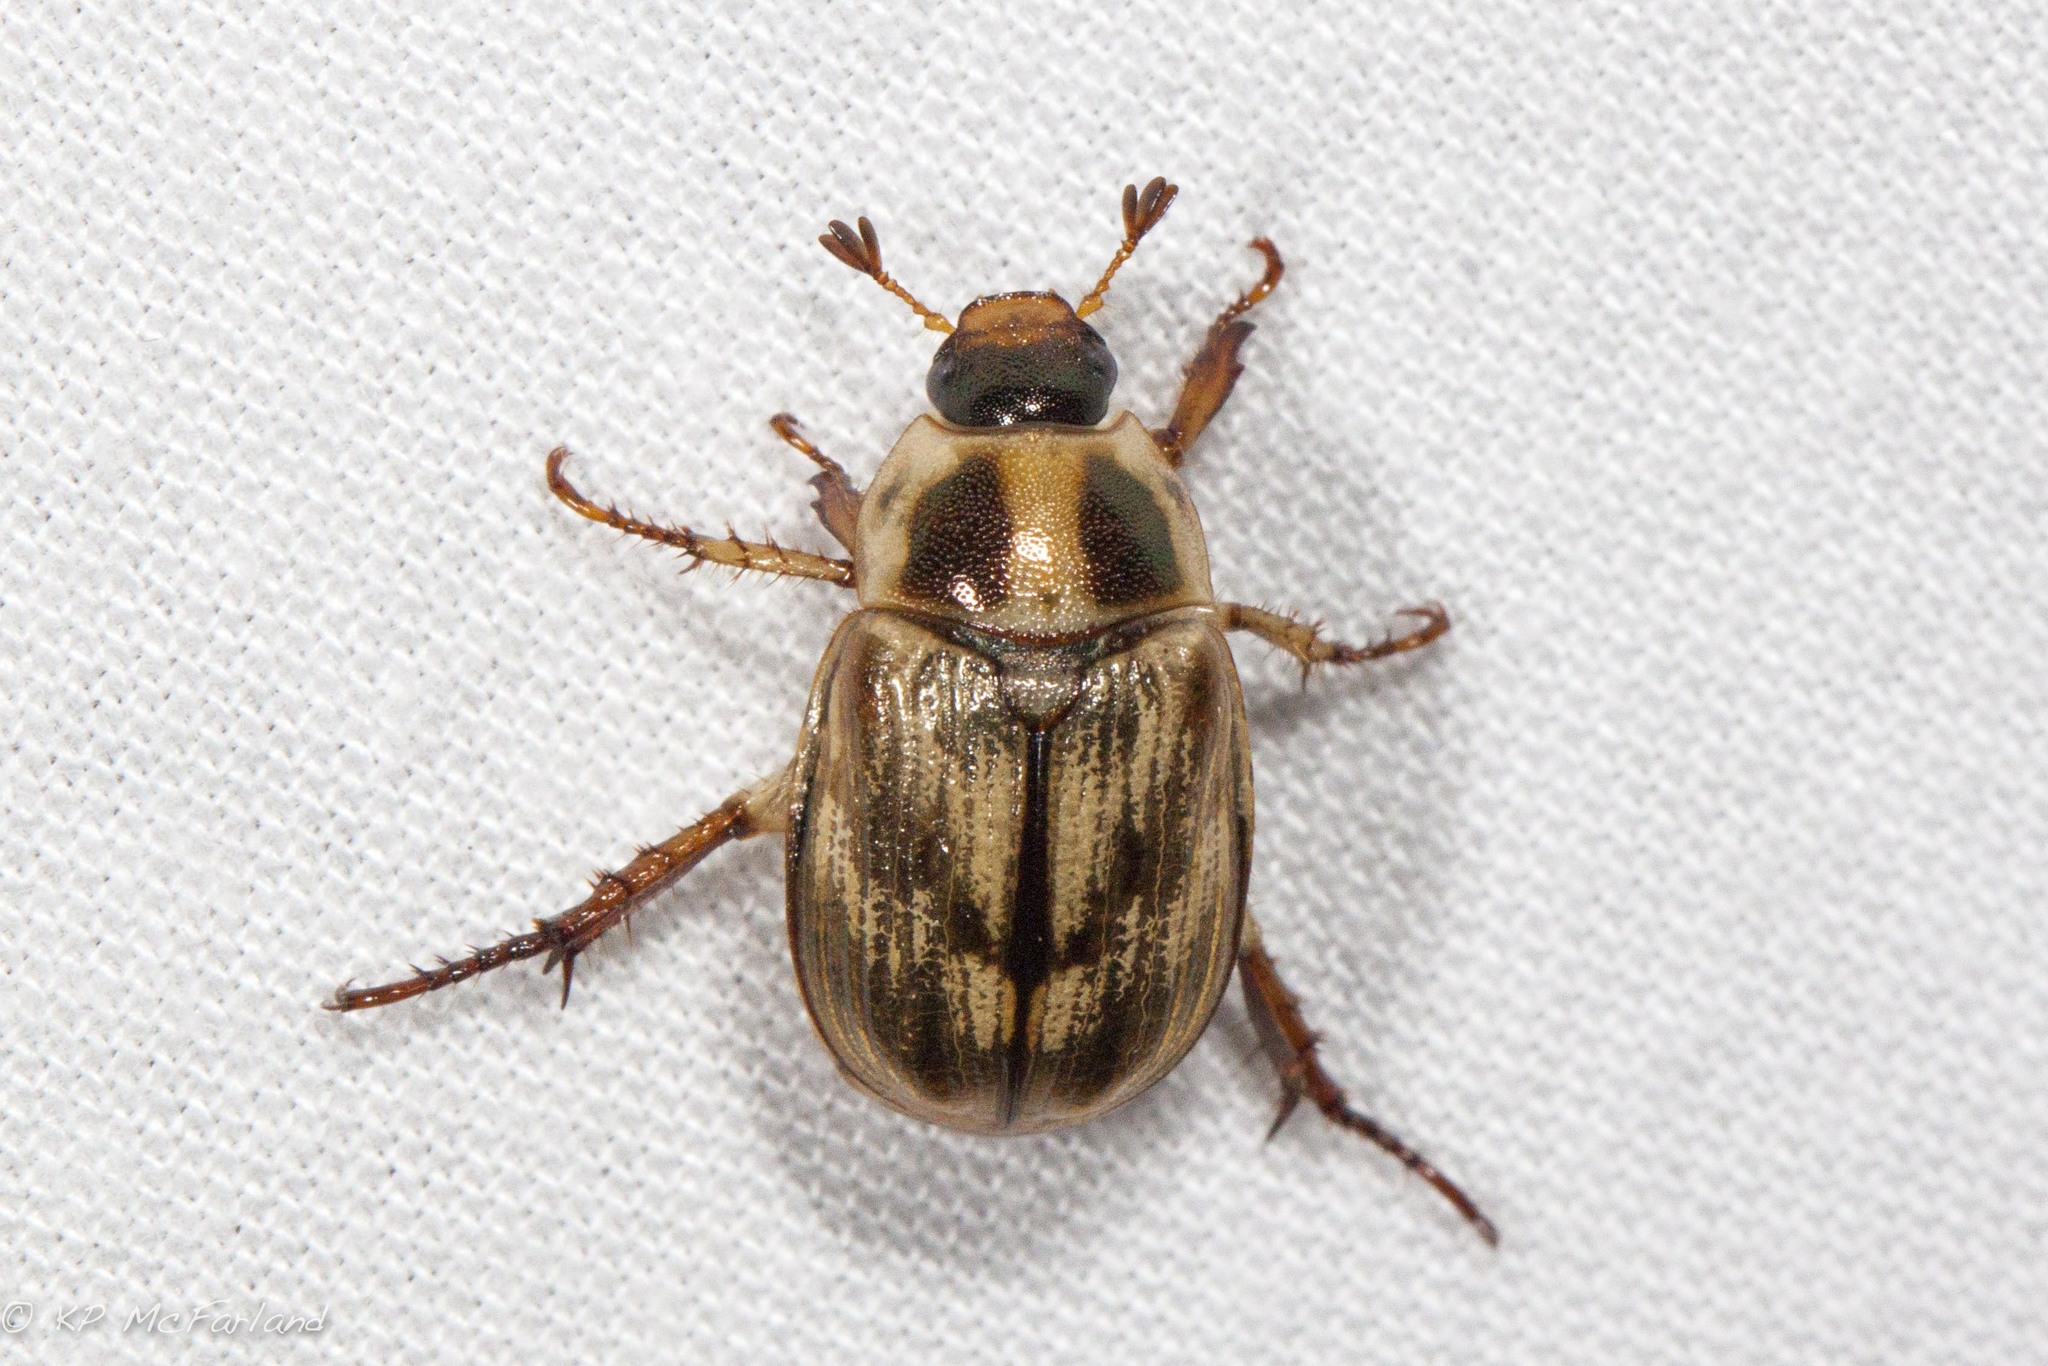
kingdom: Animalia
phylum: Arthropoda
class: Insecta
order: Coleoptera
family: Scarabaeidae
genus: Exomala
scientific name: Exomala orientalis
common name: Oriental beetle
